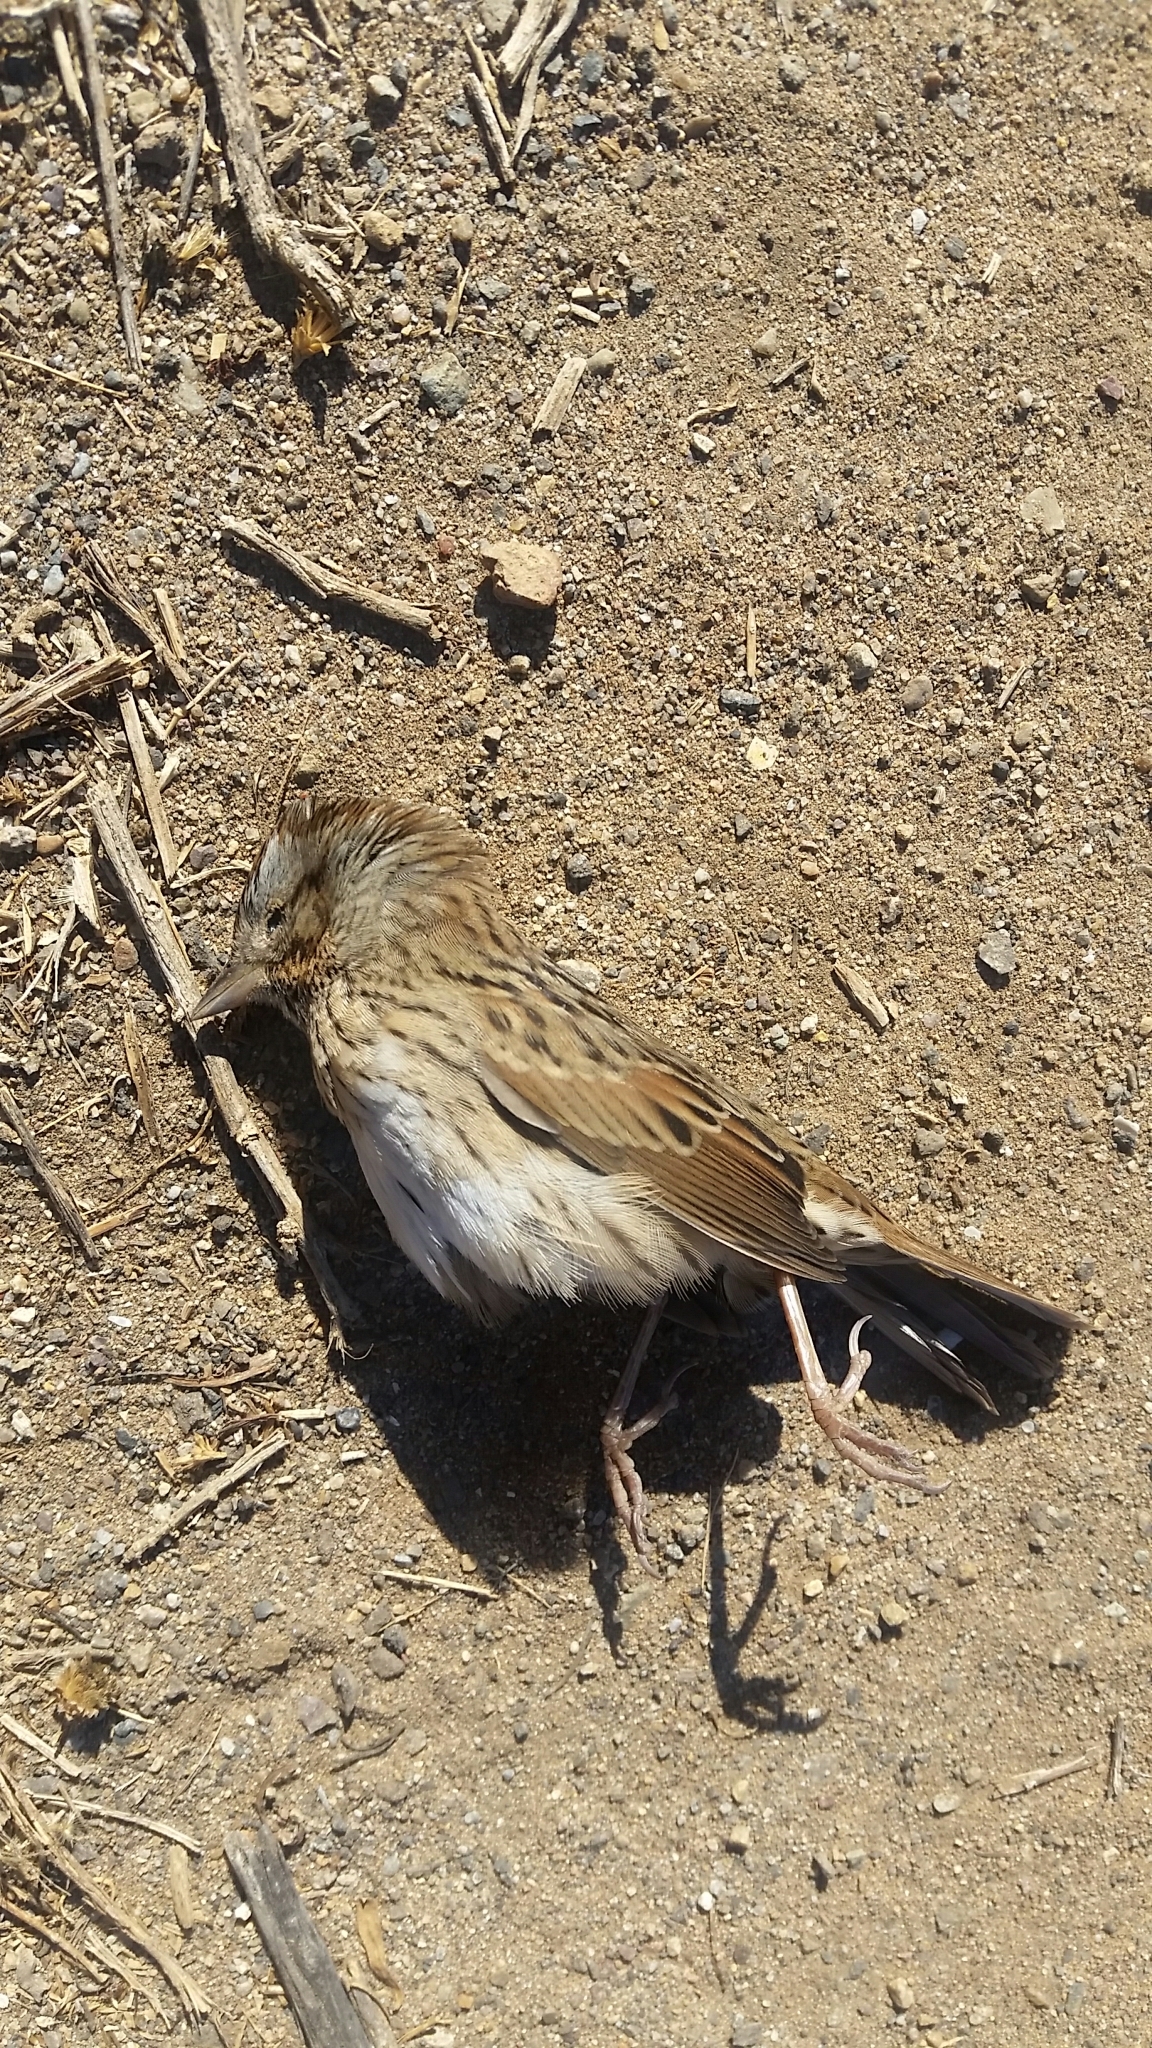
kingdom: Animalia
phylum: Chordata
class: Aves
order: Passeriformes
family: Passerellidae
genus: Melospiza
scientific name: Melospiza lincolnii
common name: Lincoln's sparrow
